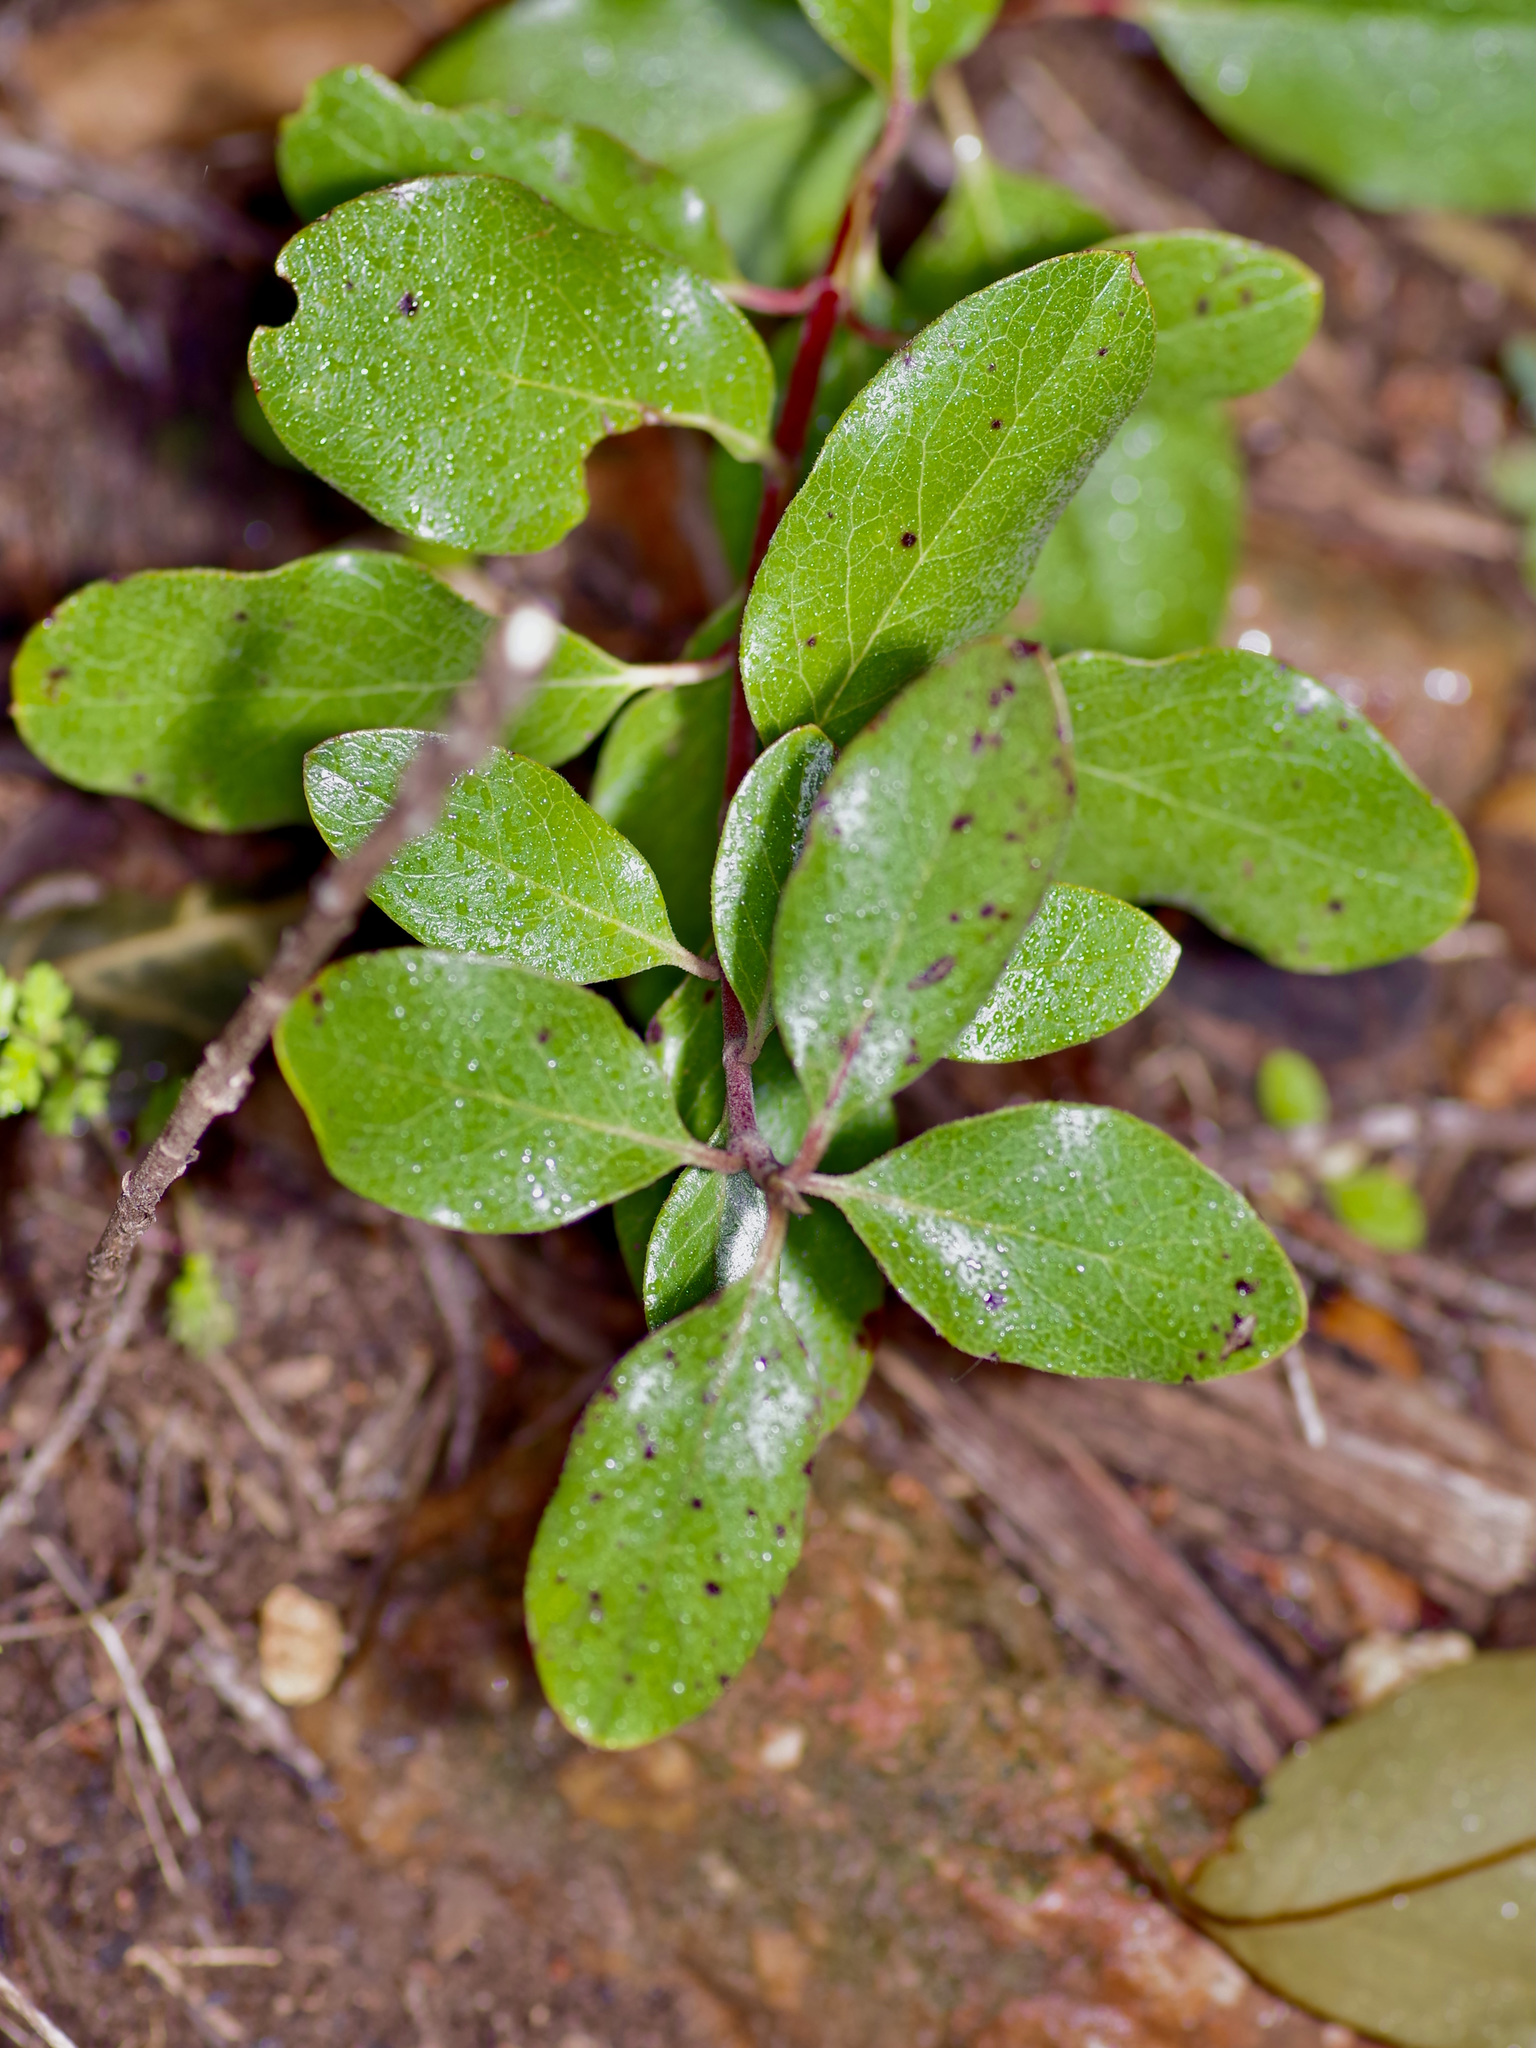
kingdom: Plantae
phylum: Tracheophyta
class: Magnoliopsida
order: Garryales
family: Garryaceae
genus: Garrya
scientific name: Garrya lindheimeri
